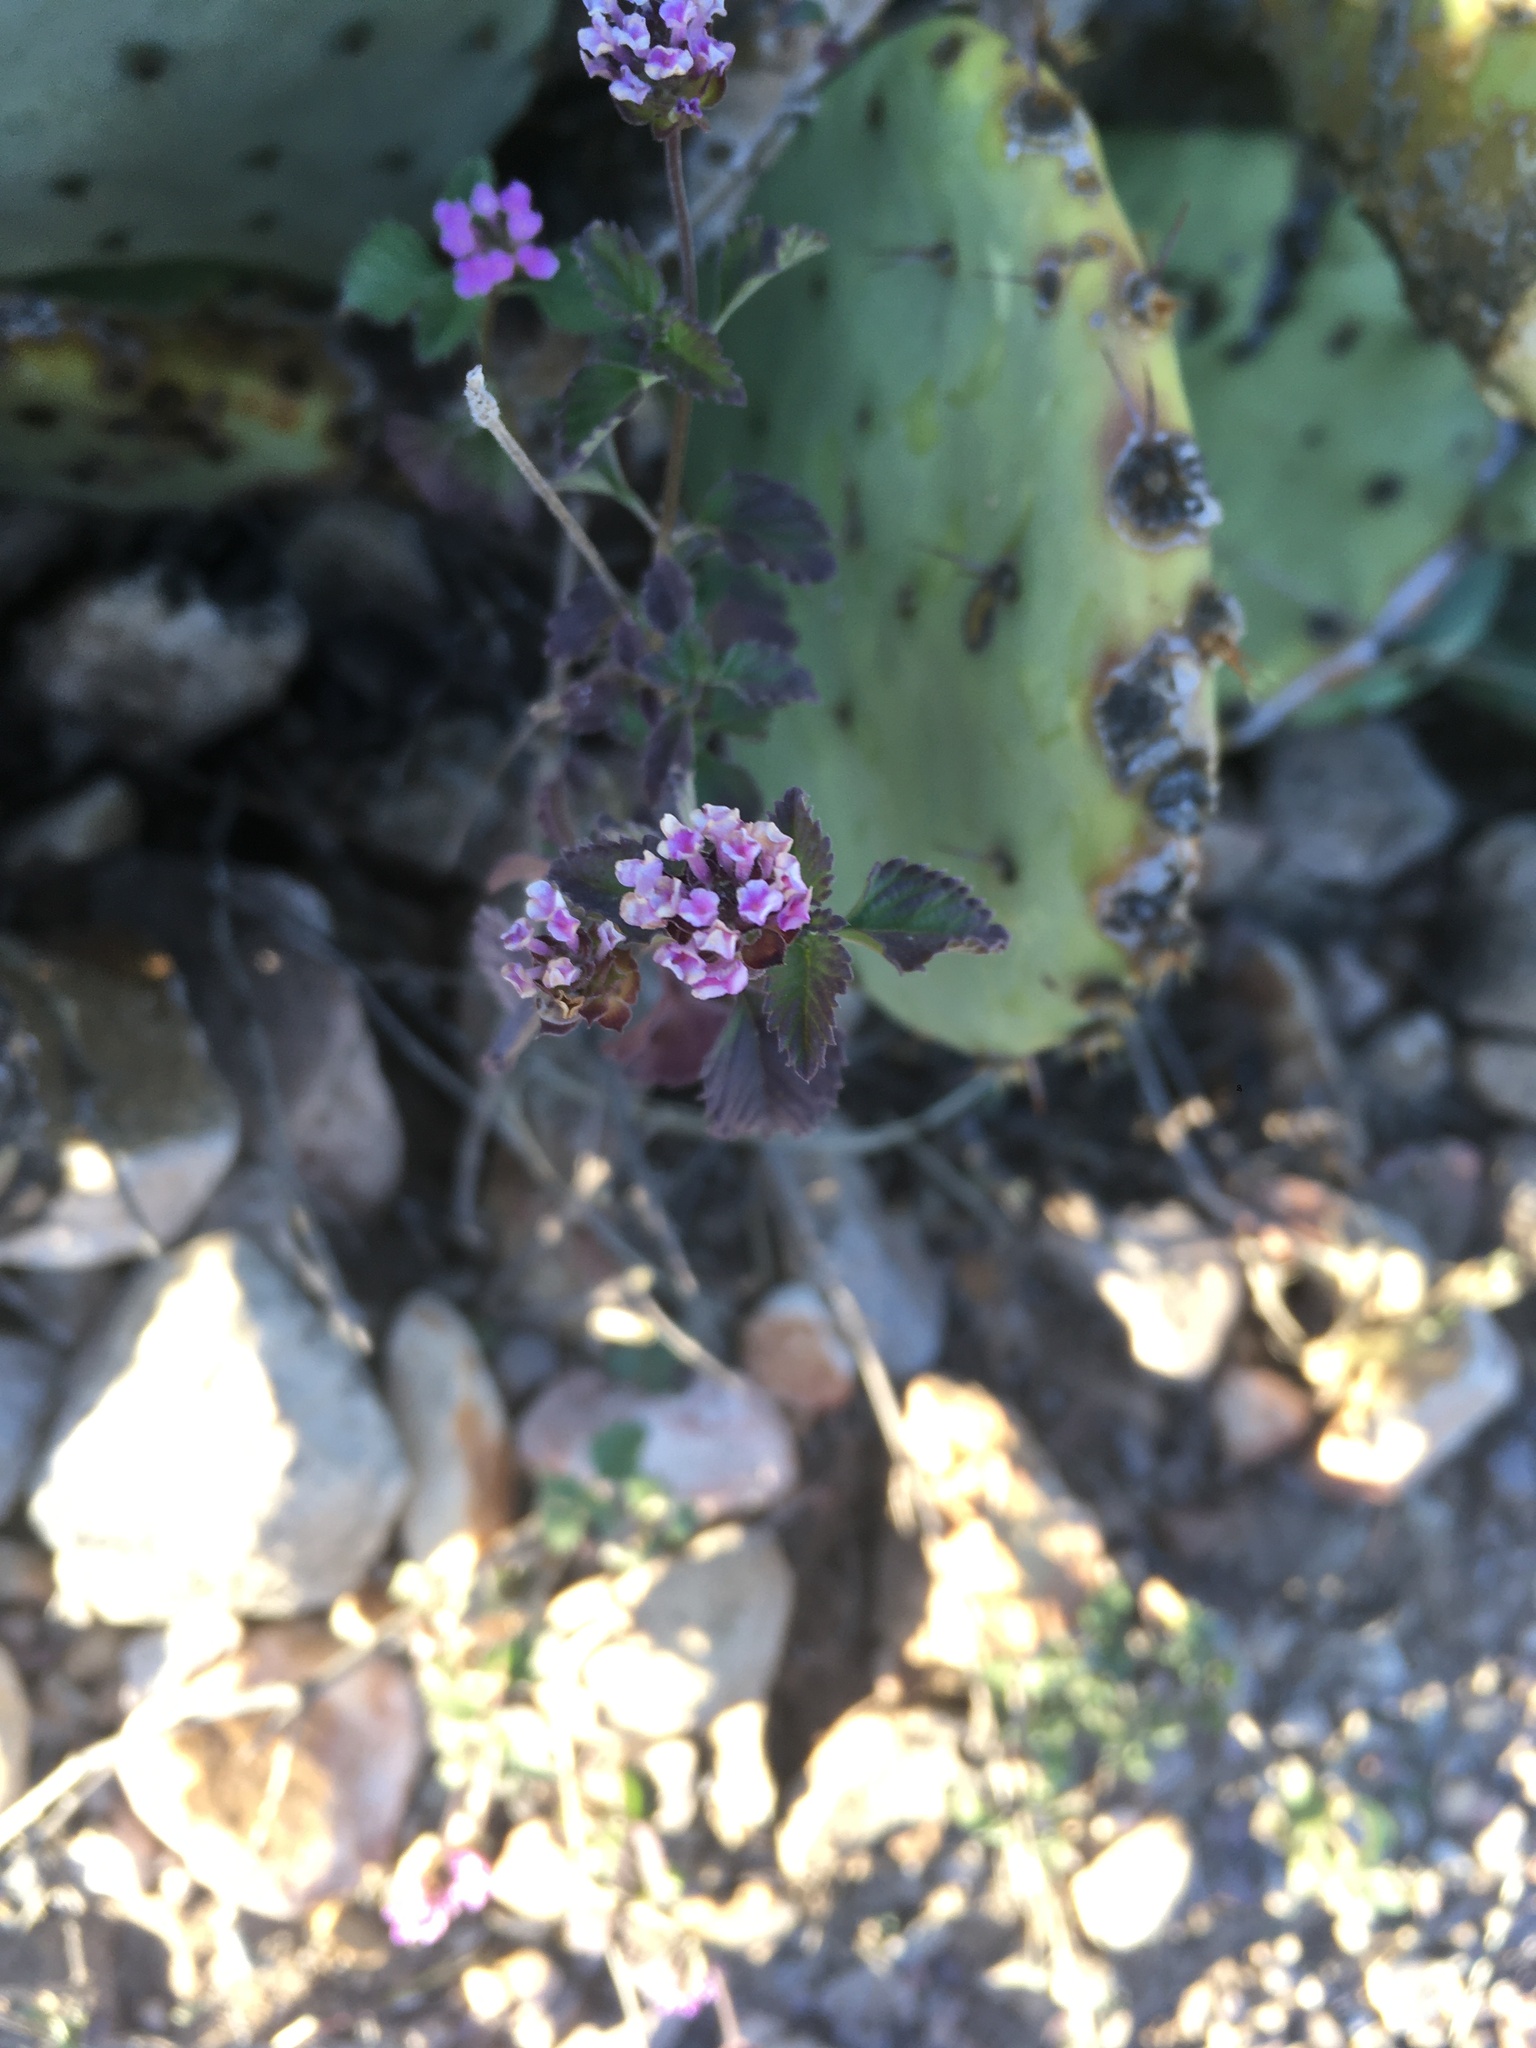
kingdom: Plantae
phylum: Tracheophyta
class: Magnoliopsida
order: Lamiales
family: Verbenaceae
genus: Lantana
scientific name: Lantana achyranthifolia
